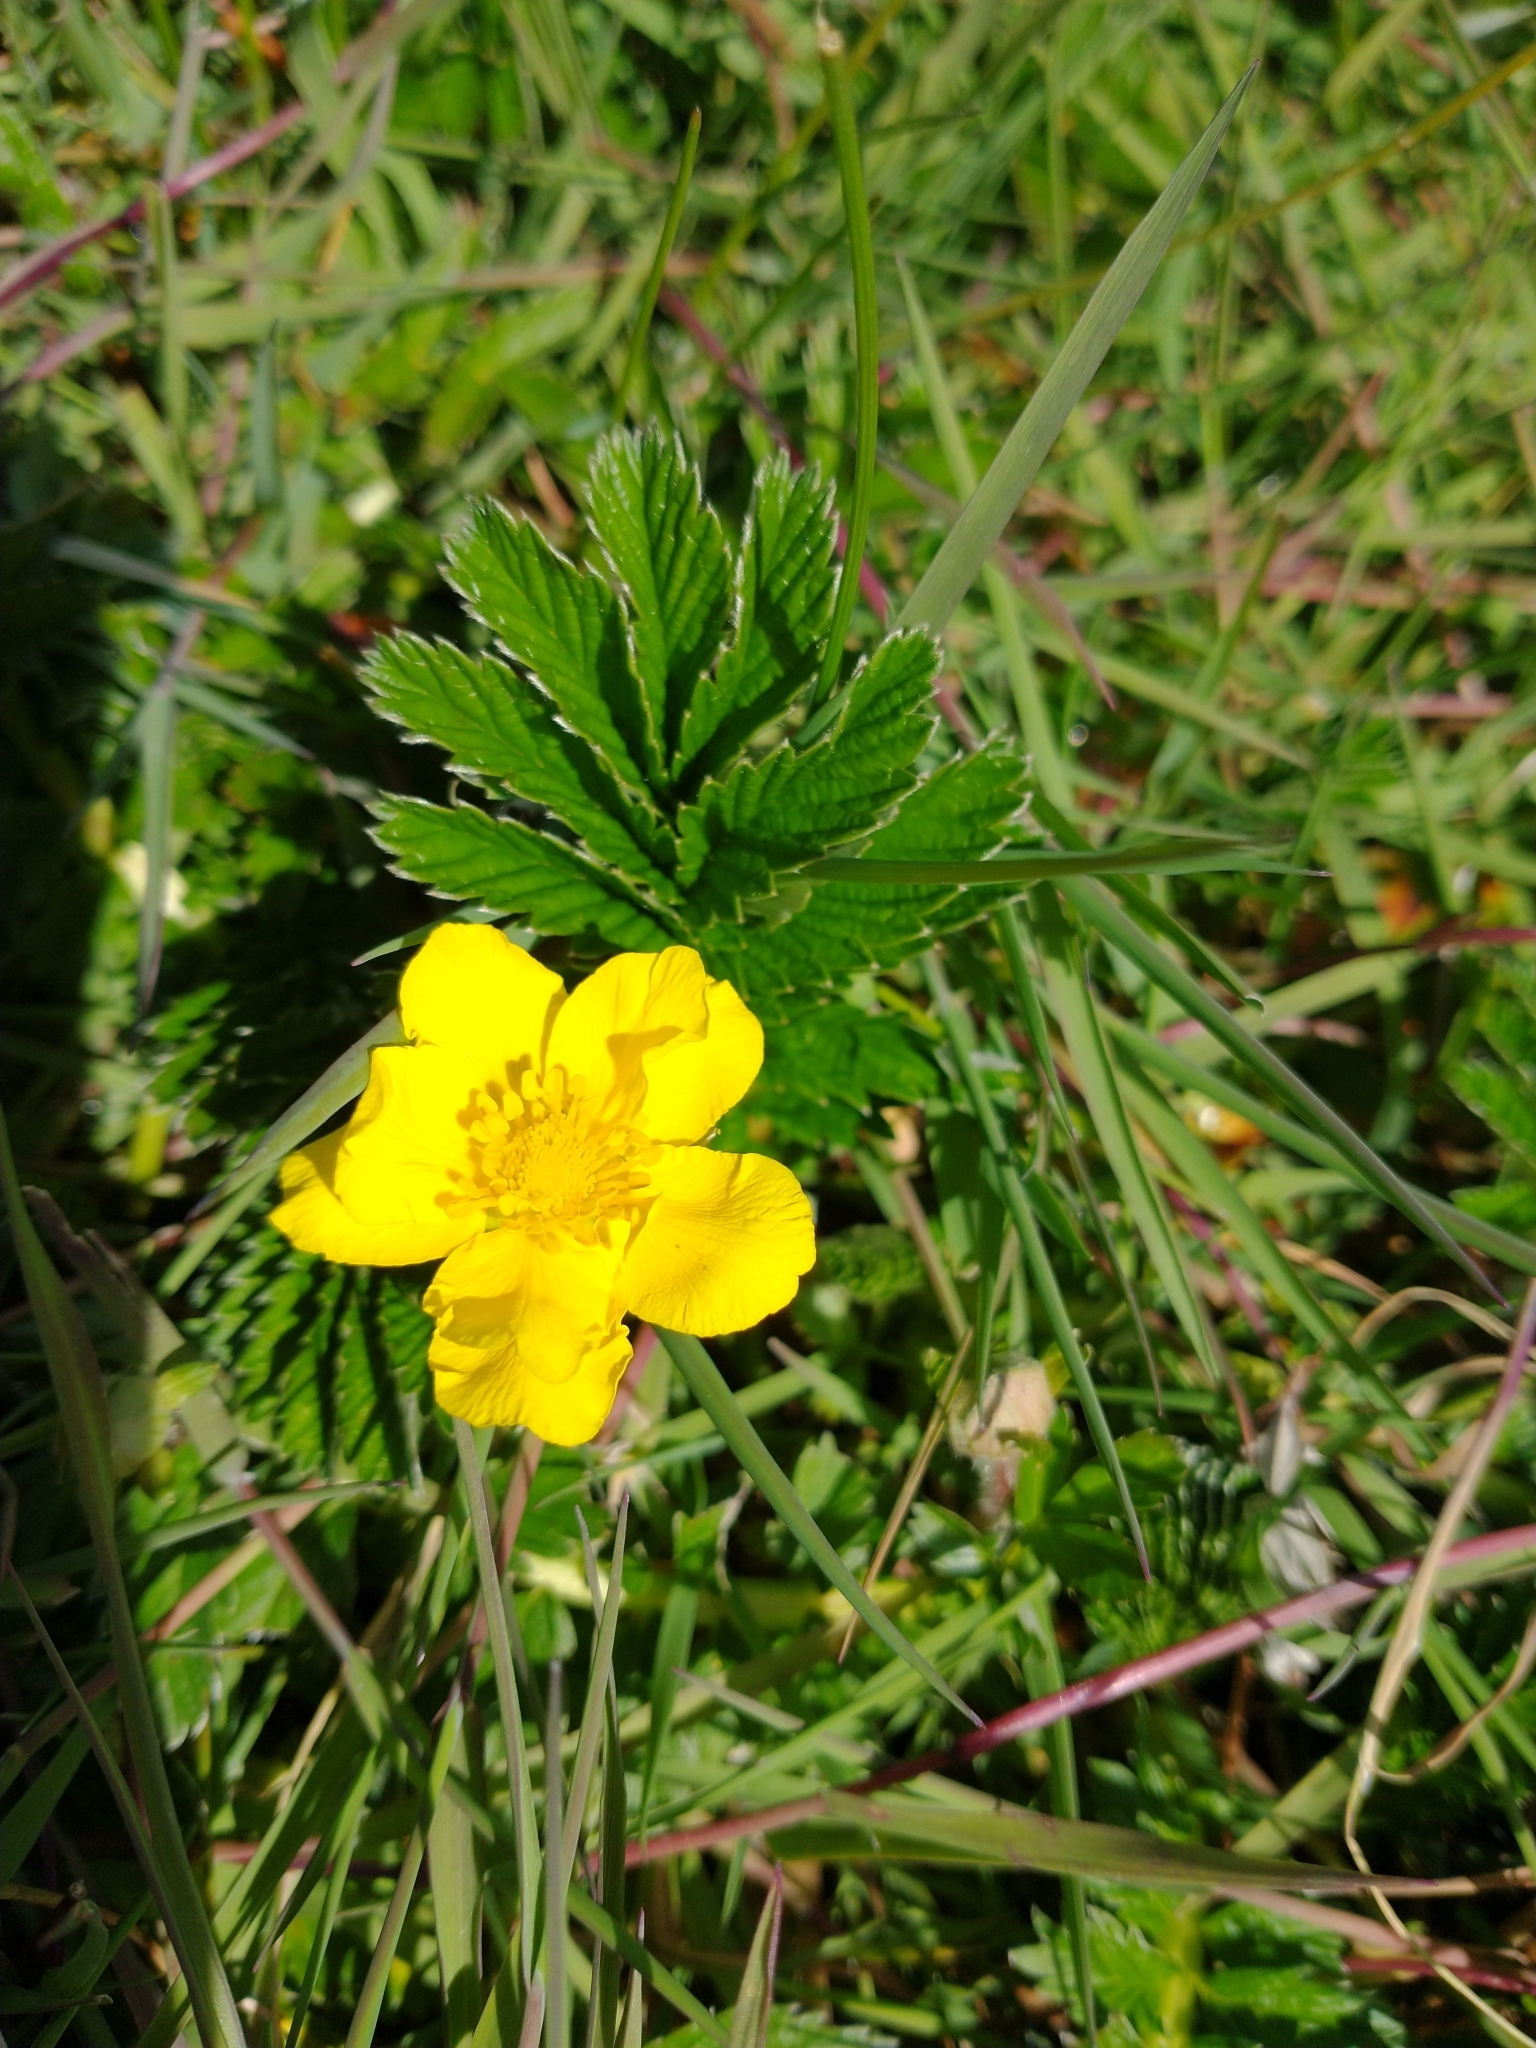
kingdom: Plantae
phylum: Tracheophyta
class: Magnoliopsida
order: Rosales
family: Rosaceae
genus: Argentina
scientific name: Argentina anserina
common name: Common silverweed
